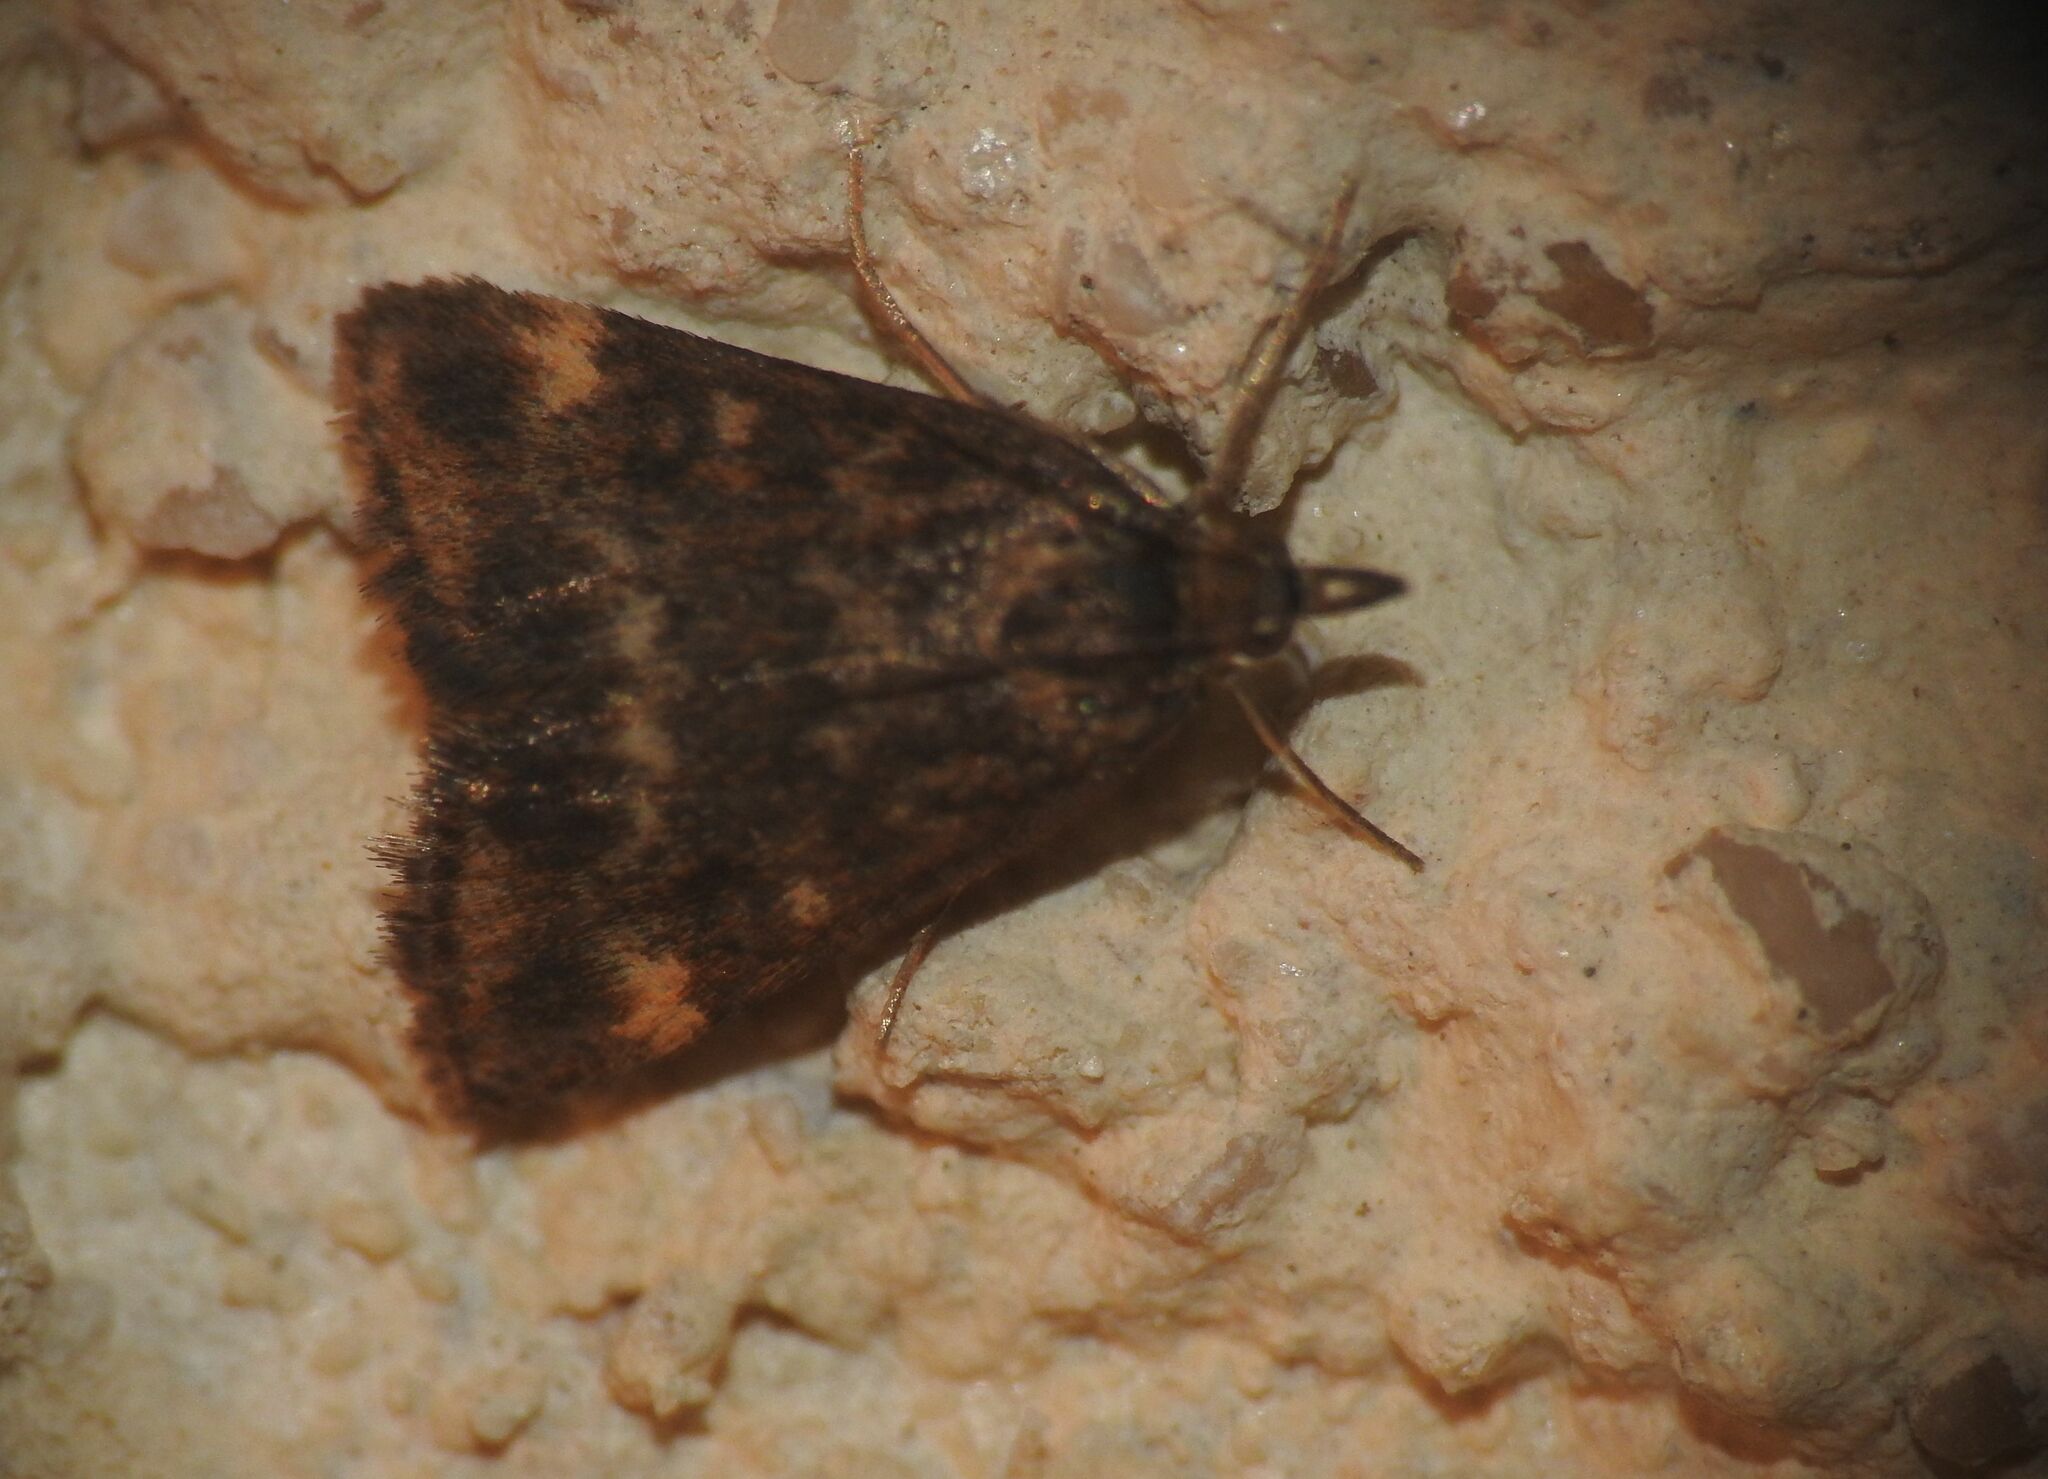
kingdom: Animalia
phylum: Arthropoda
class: Insecta
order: Lepidoptera
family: Crambidae
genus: Pyrausta
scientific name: Pyrausta despicata
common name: Straw-barred pearl
